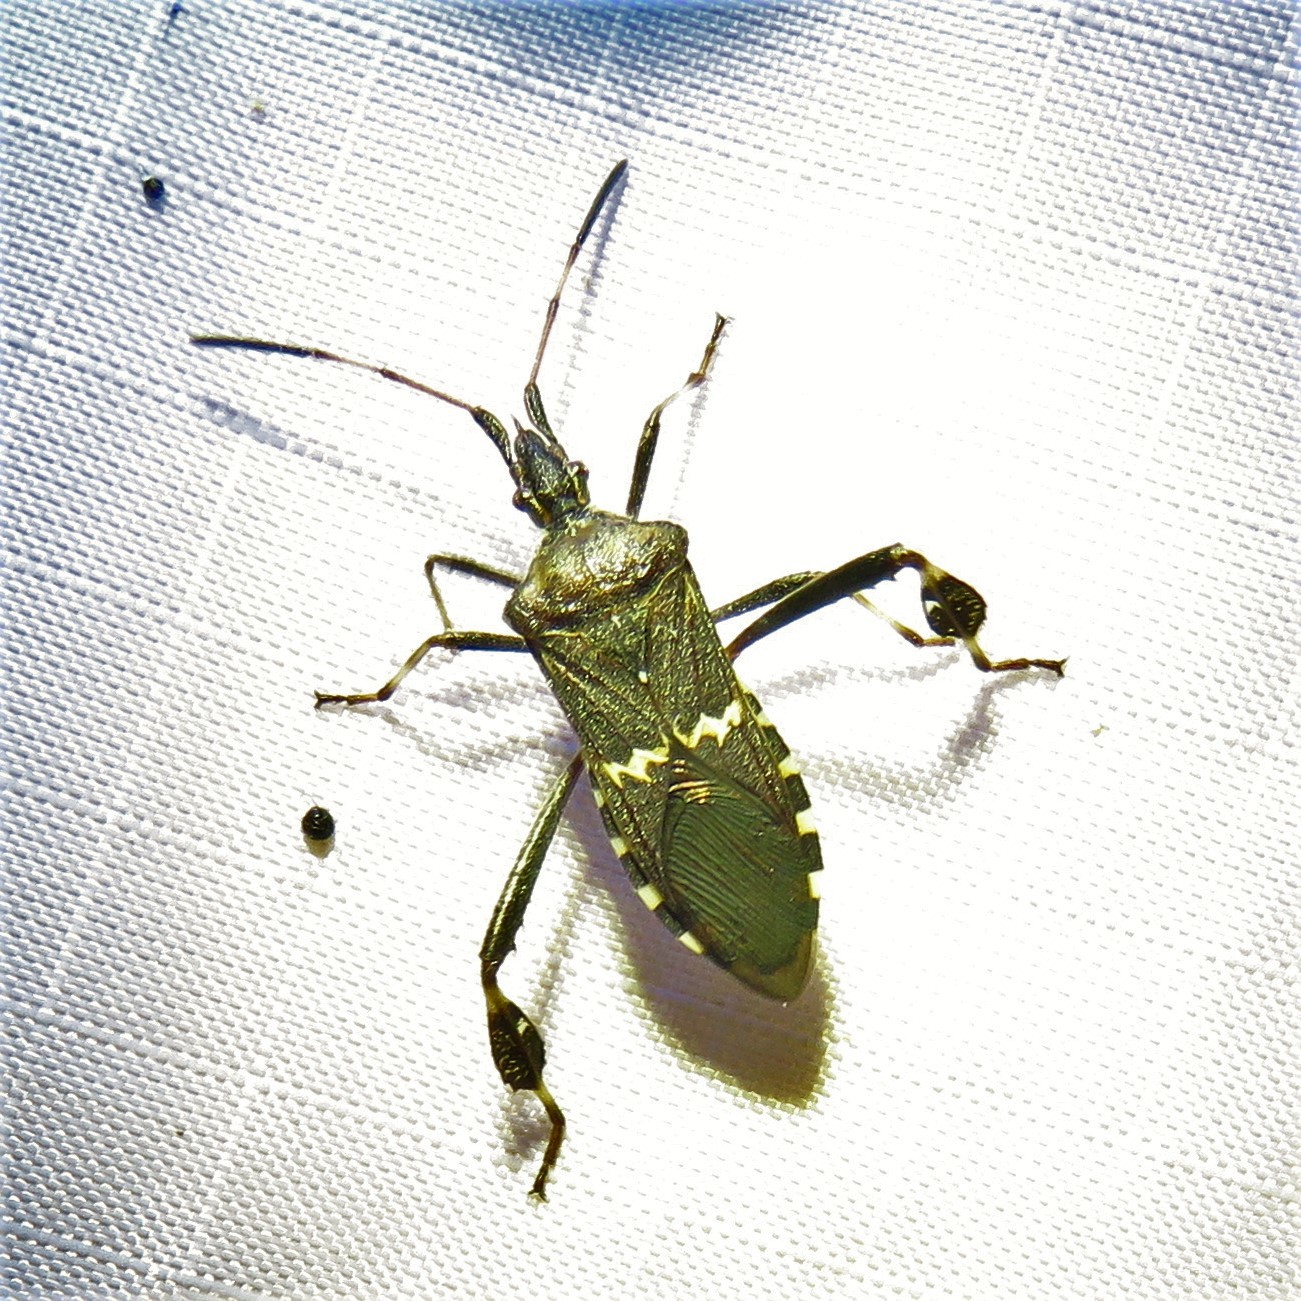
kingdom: Animalia
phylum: Arthropoda
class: Insecta
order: Hemiptera
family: Coreidae
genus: Leptoglossus
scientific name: Leptoglossus clypealis
